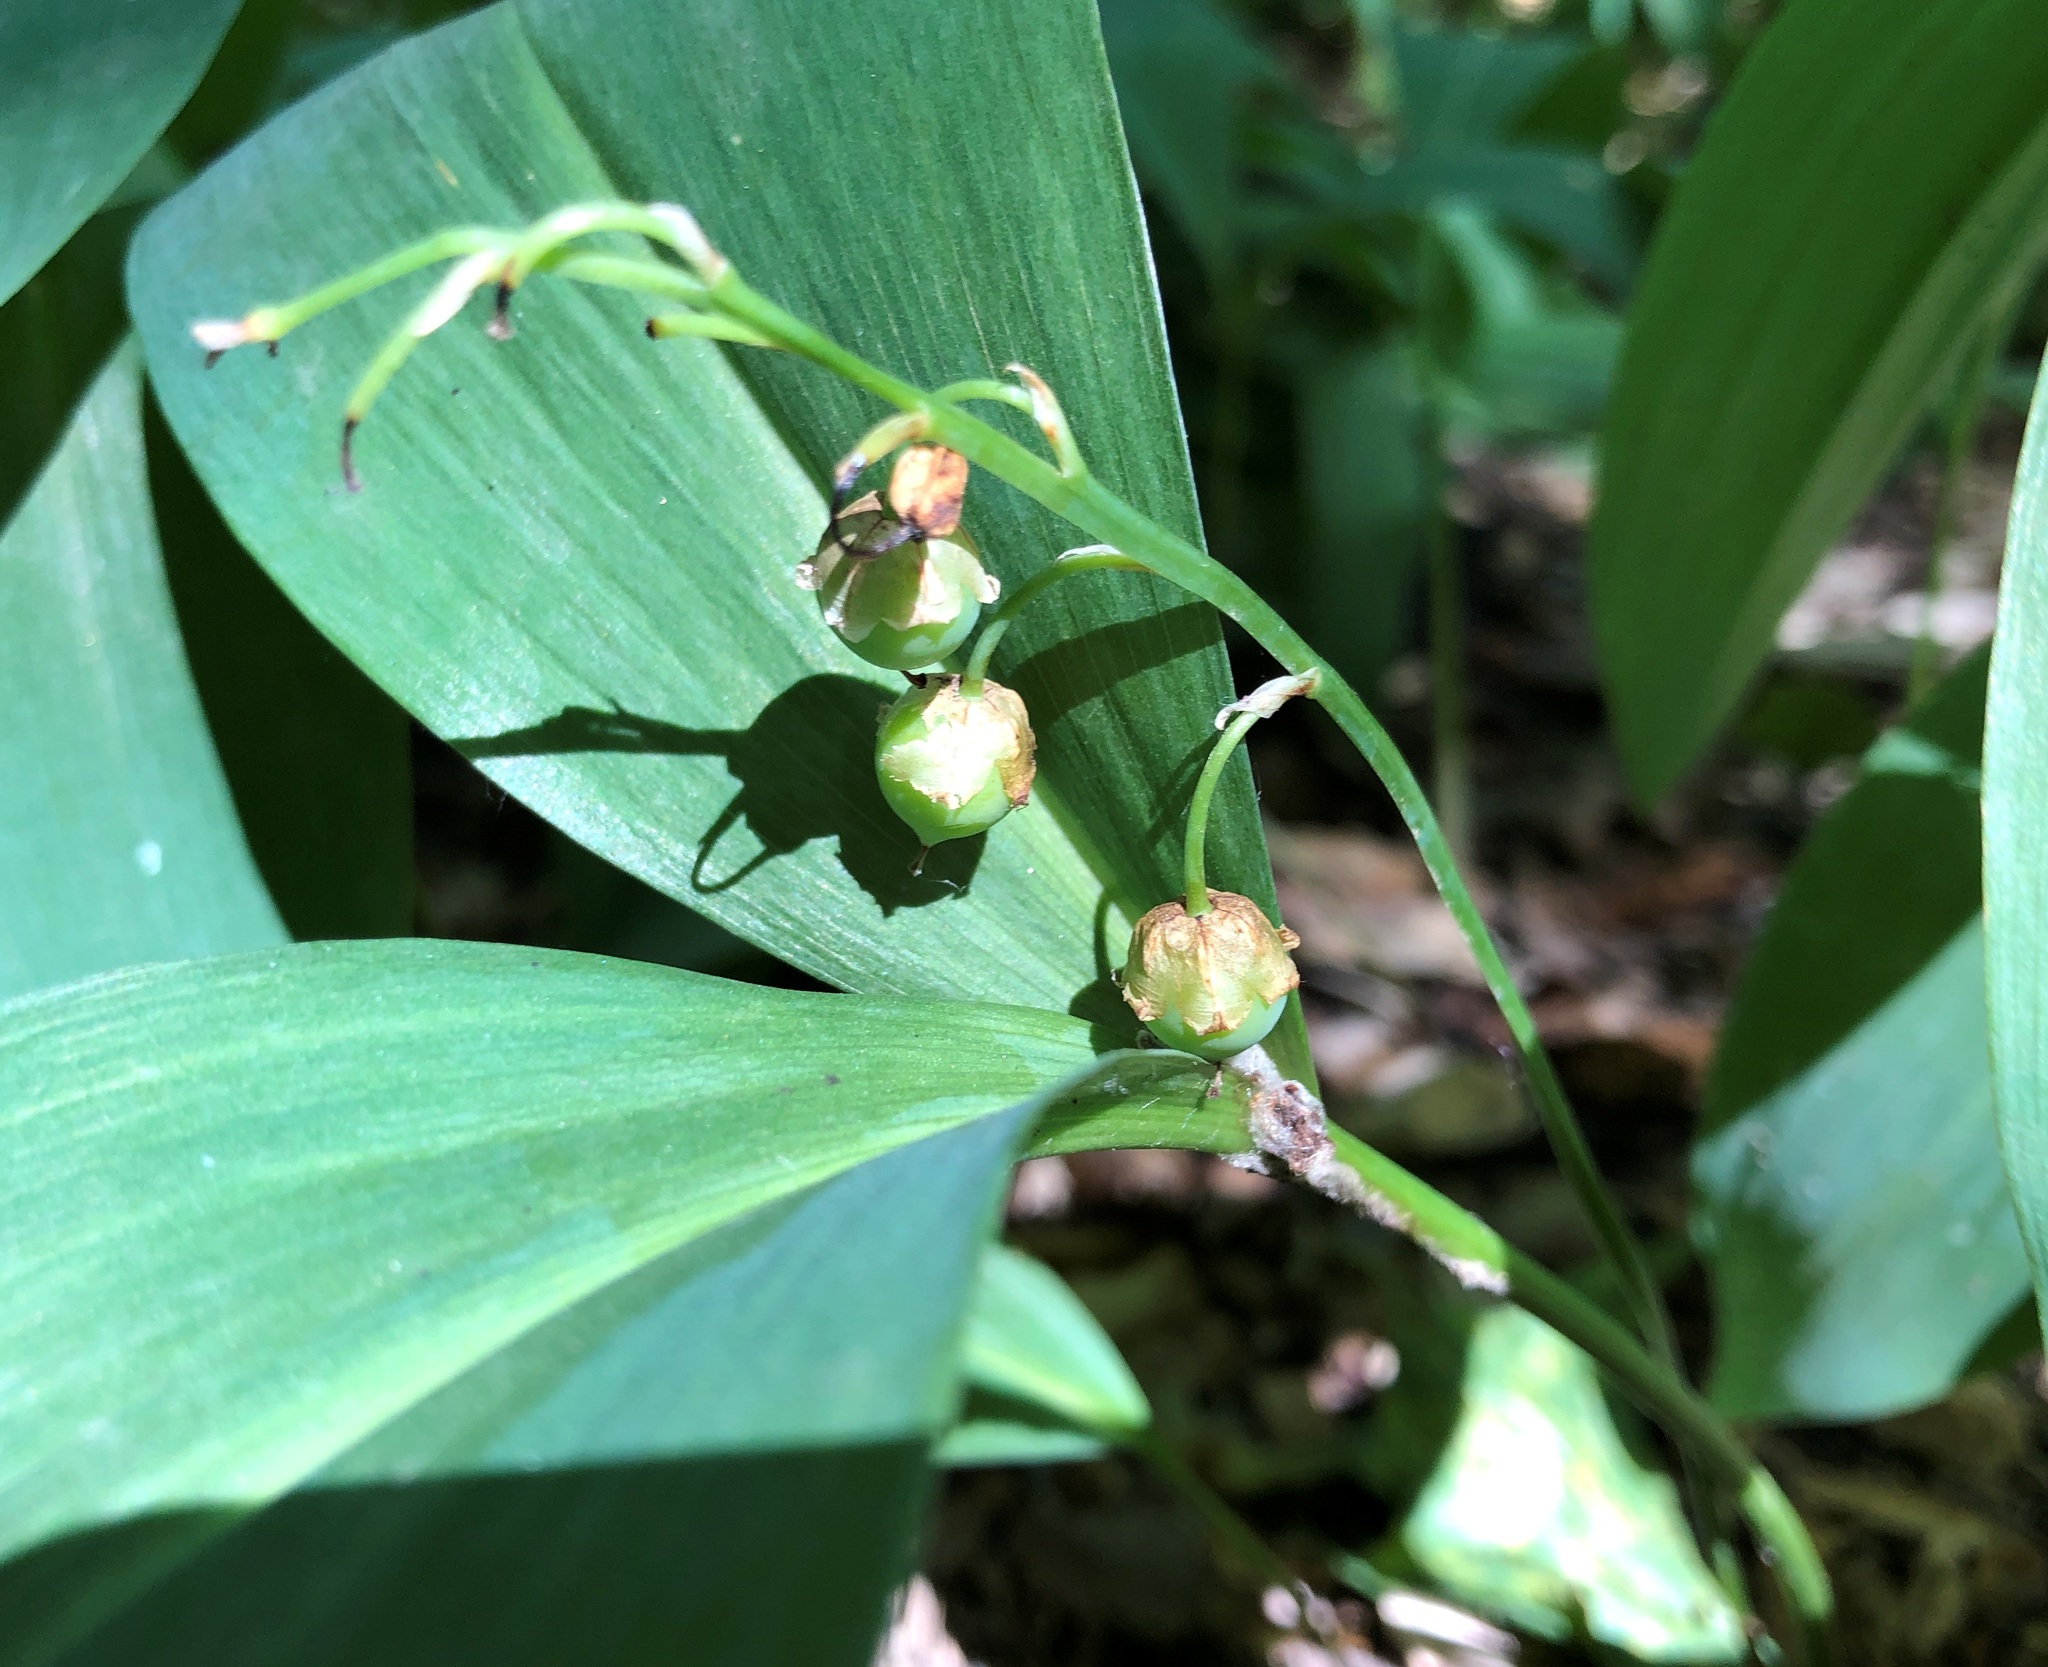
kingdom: Plantae
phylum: Tracheophyta
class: Liliopsida
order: Asparagales
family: Asparagaceae
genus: Convallaria
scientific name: Convallaria majalis
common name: Lily-of-the-valley
